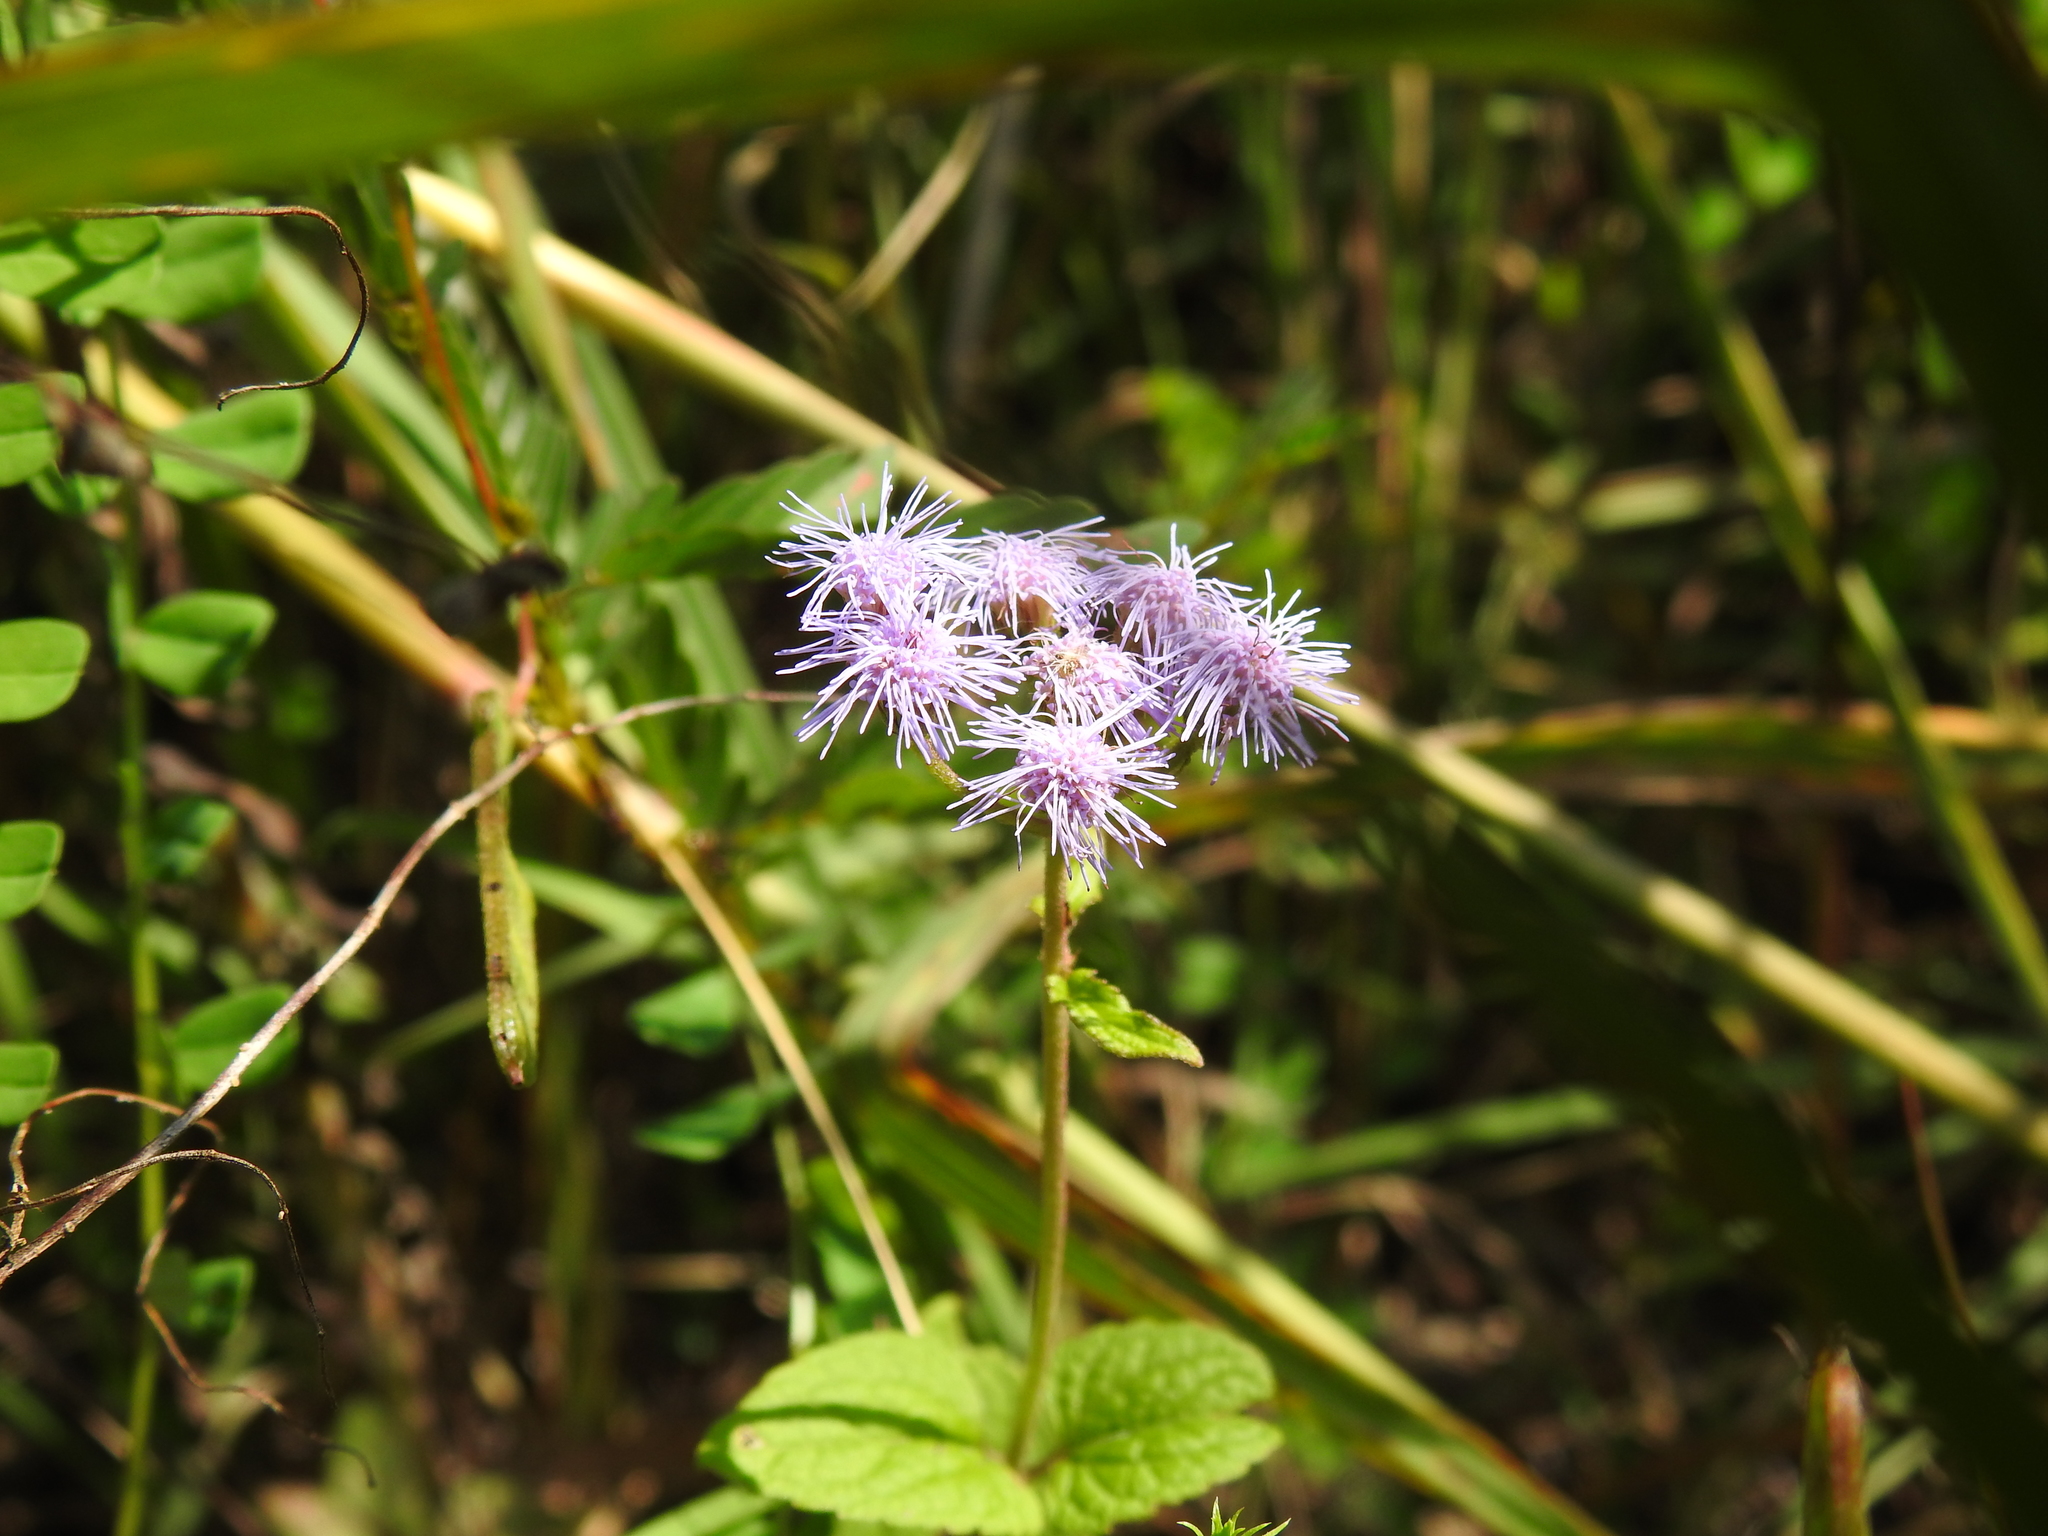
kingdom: Plantae
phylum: Tracheophyta
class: Magnoliopsida
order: Asterales
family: Asteraceae
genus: Conoclinium
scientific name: Conoclinium coelestinum
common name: Blue mistflower
